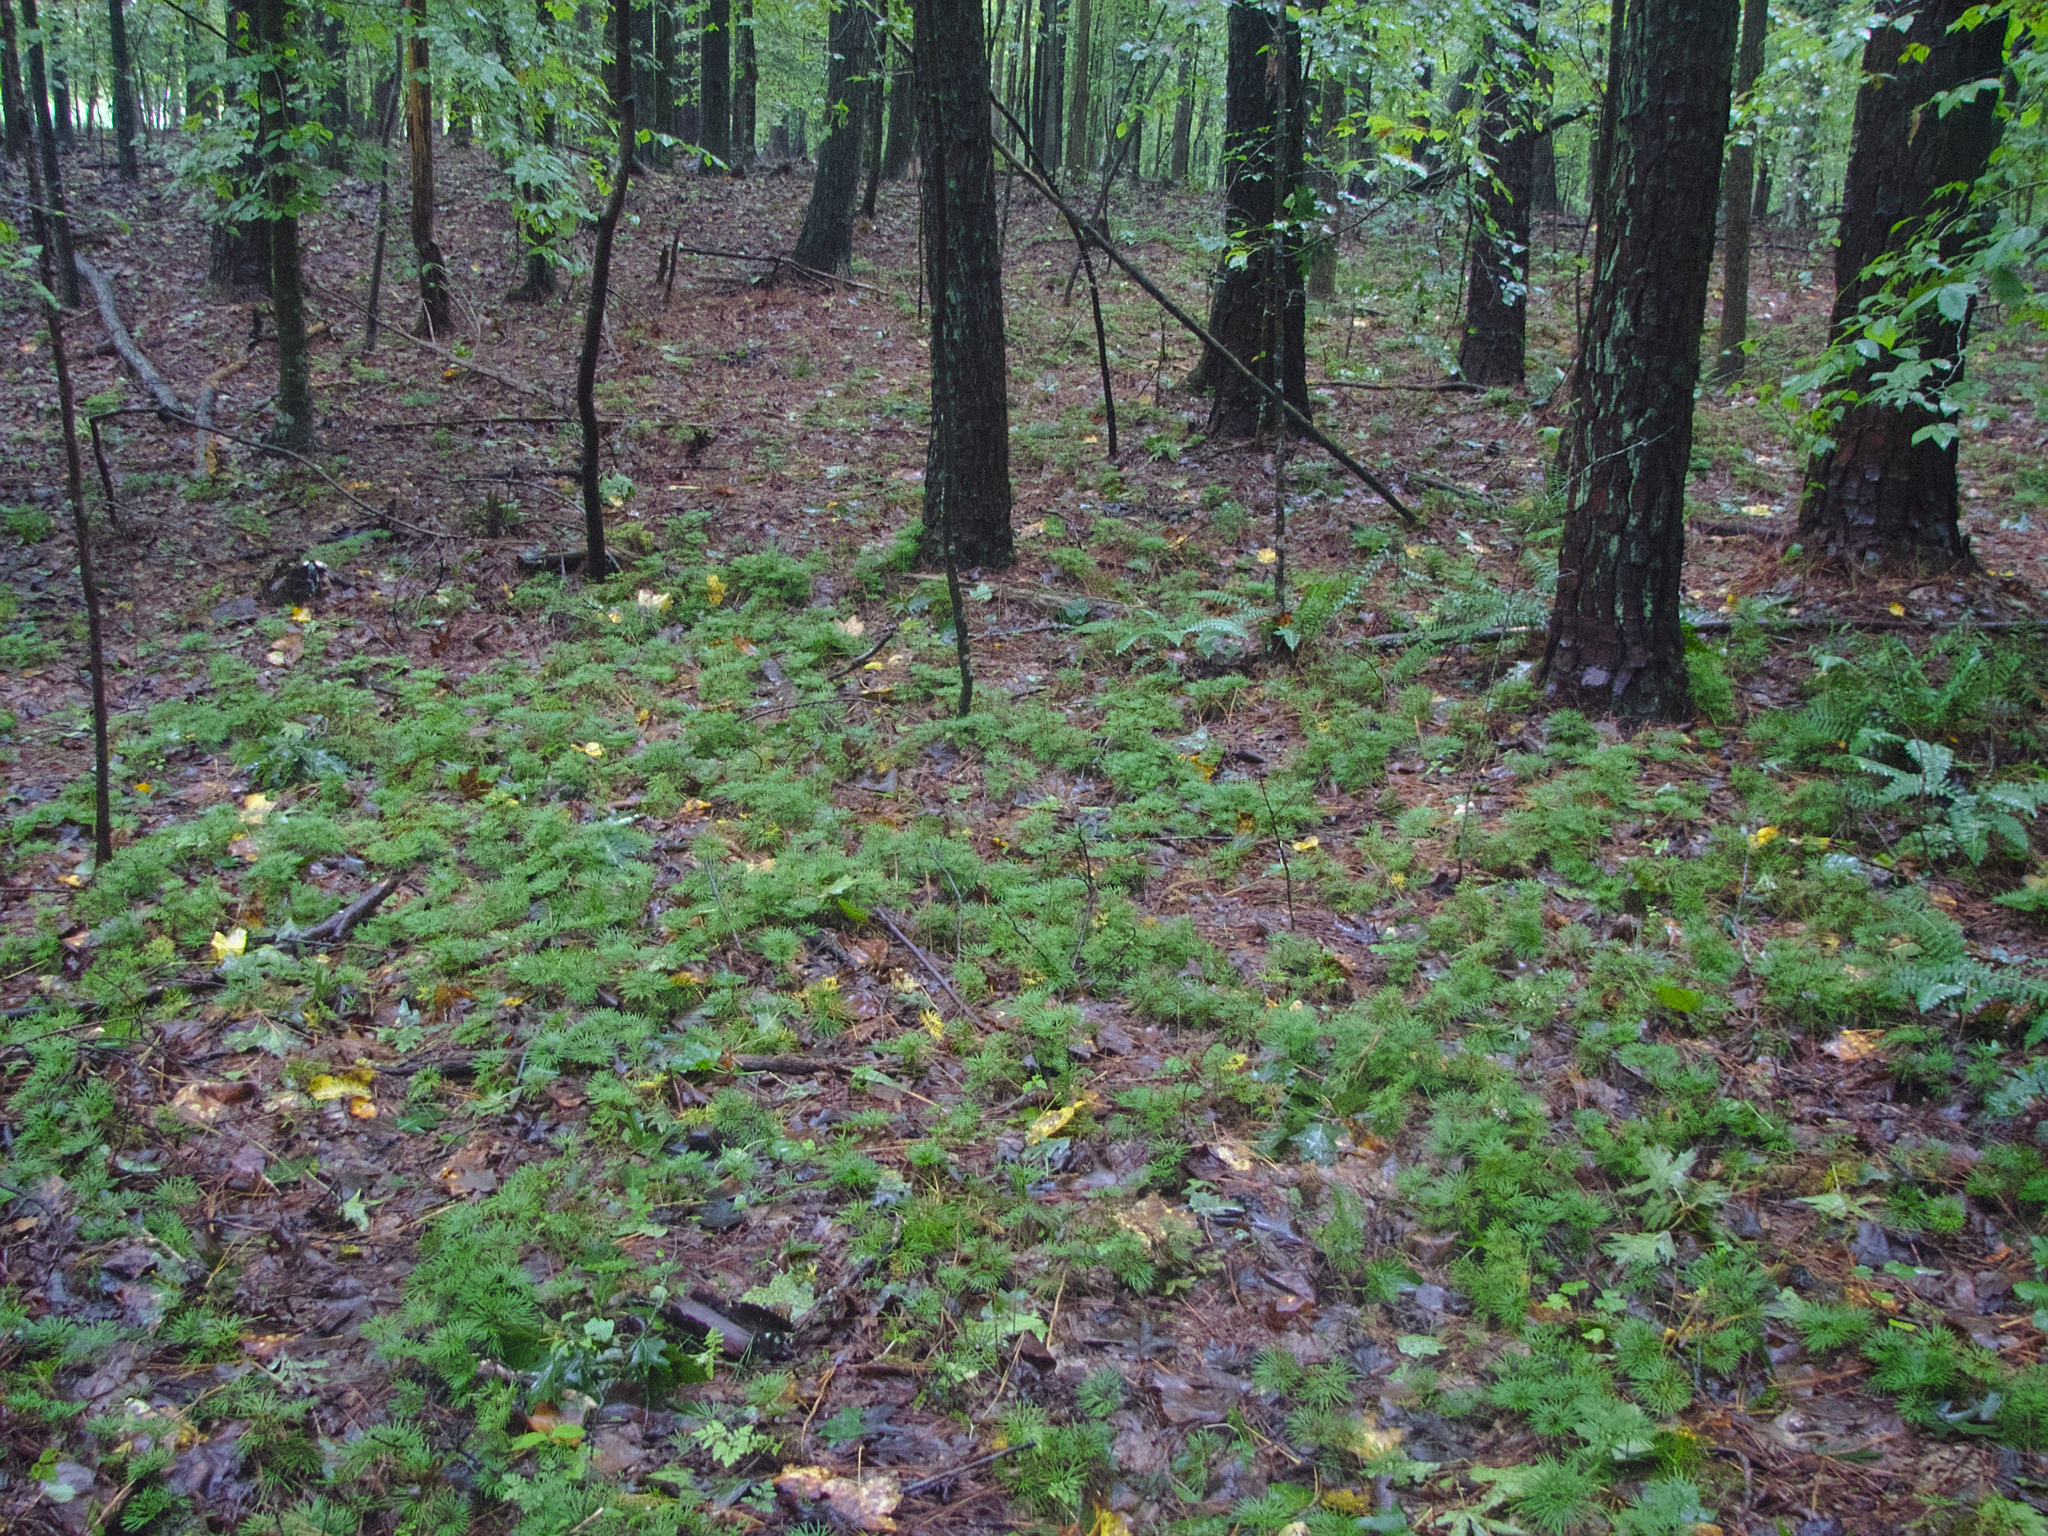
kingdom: Plantae
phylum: Tracheophyta
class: Lycopodiopsida
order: Lycopodiales
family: Lycopodiaceae
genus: Diphasiastrum
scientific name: Diphasiastrum digitatum
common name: Southern running-pine
